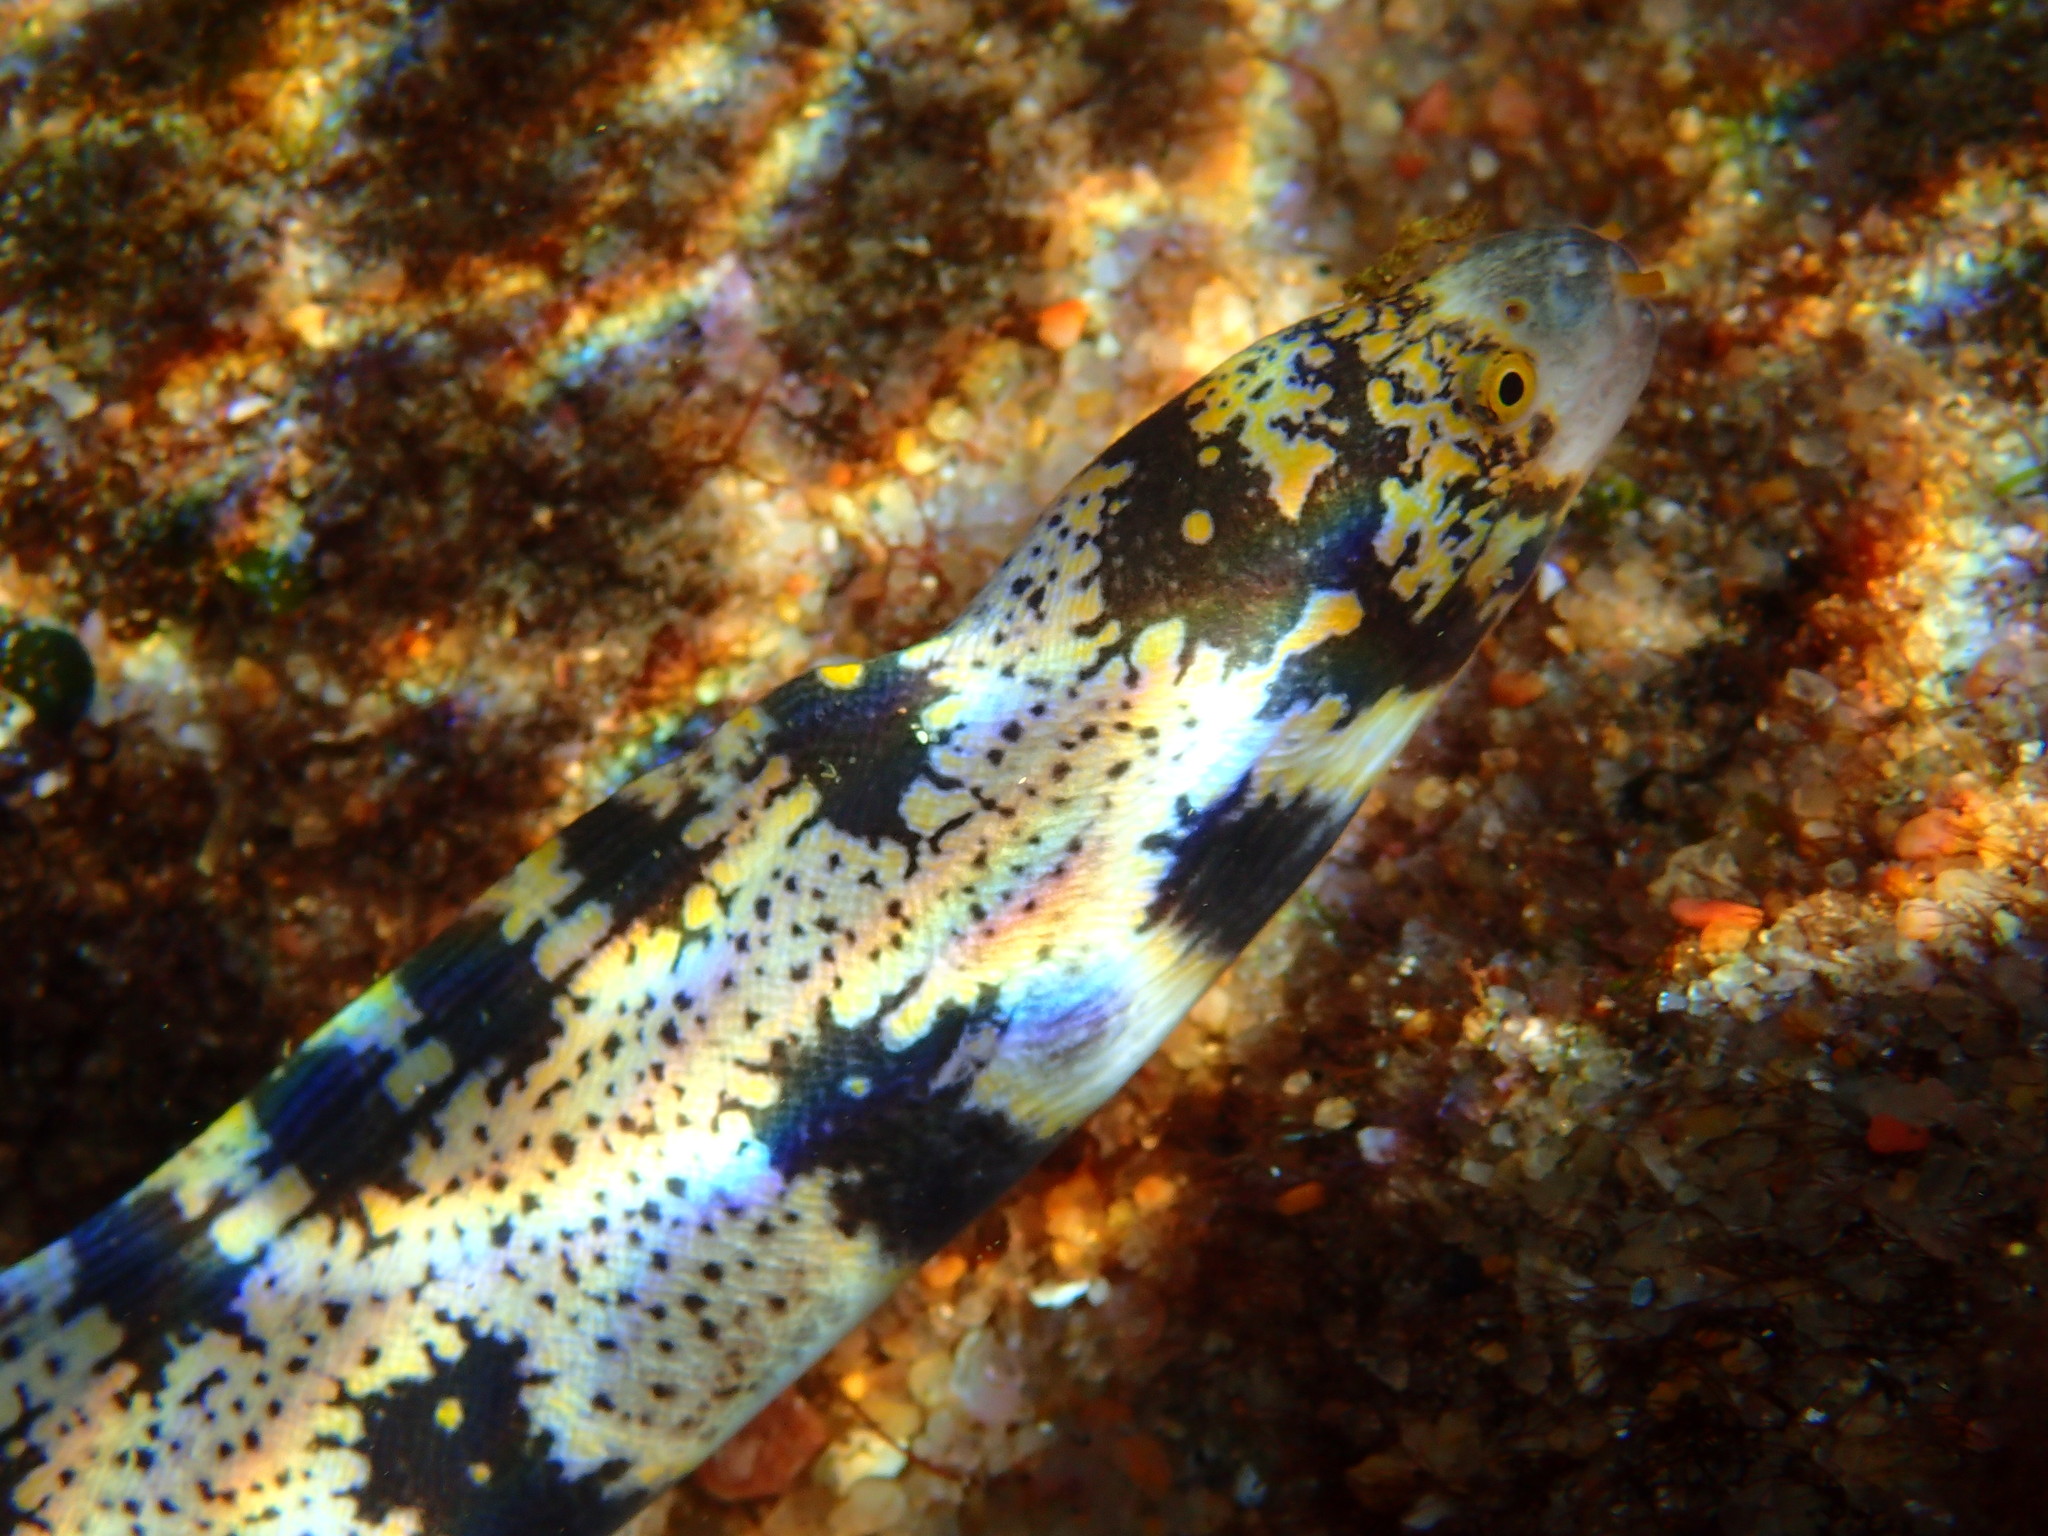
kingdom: Animalia
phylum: Chordata
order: Anguilliformes
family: Muraenidae
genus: Echidna
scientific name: Echidna nebulosa
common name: Snowflake moray
